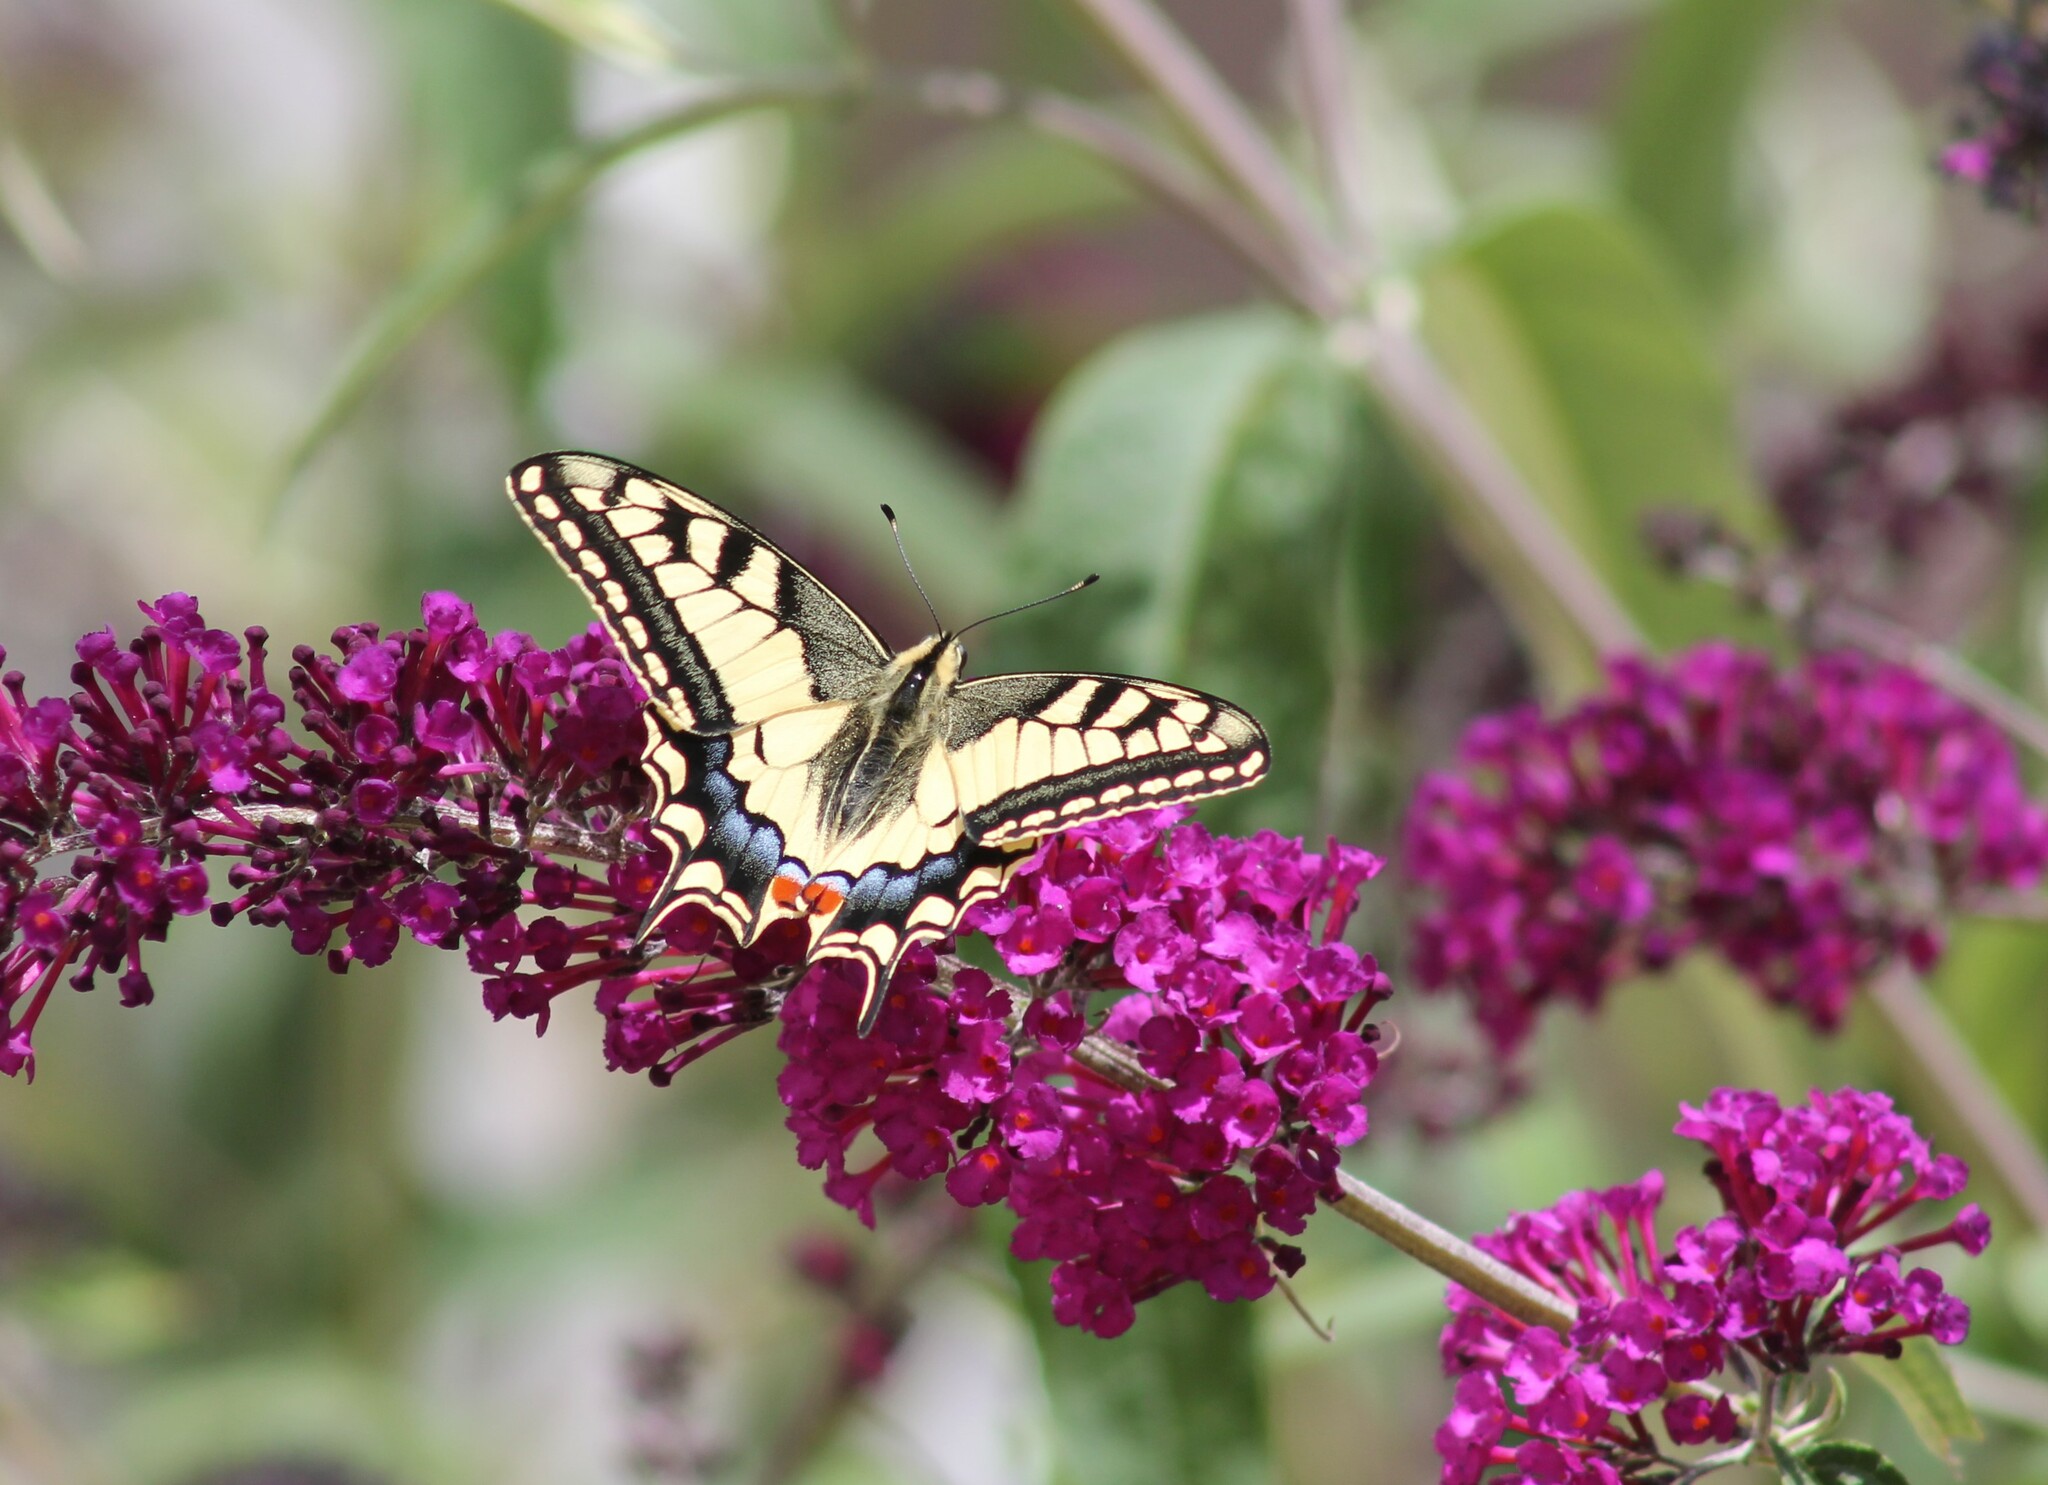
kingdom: Animalia
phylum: Arthropoda
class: Insecta
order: Lepidoptera
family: Papilionidae
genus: Papilio
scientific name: Papilio machaon
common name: Swallowtail
